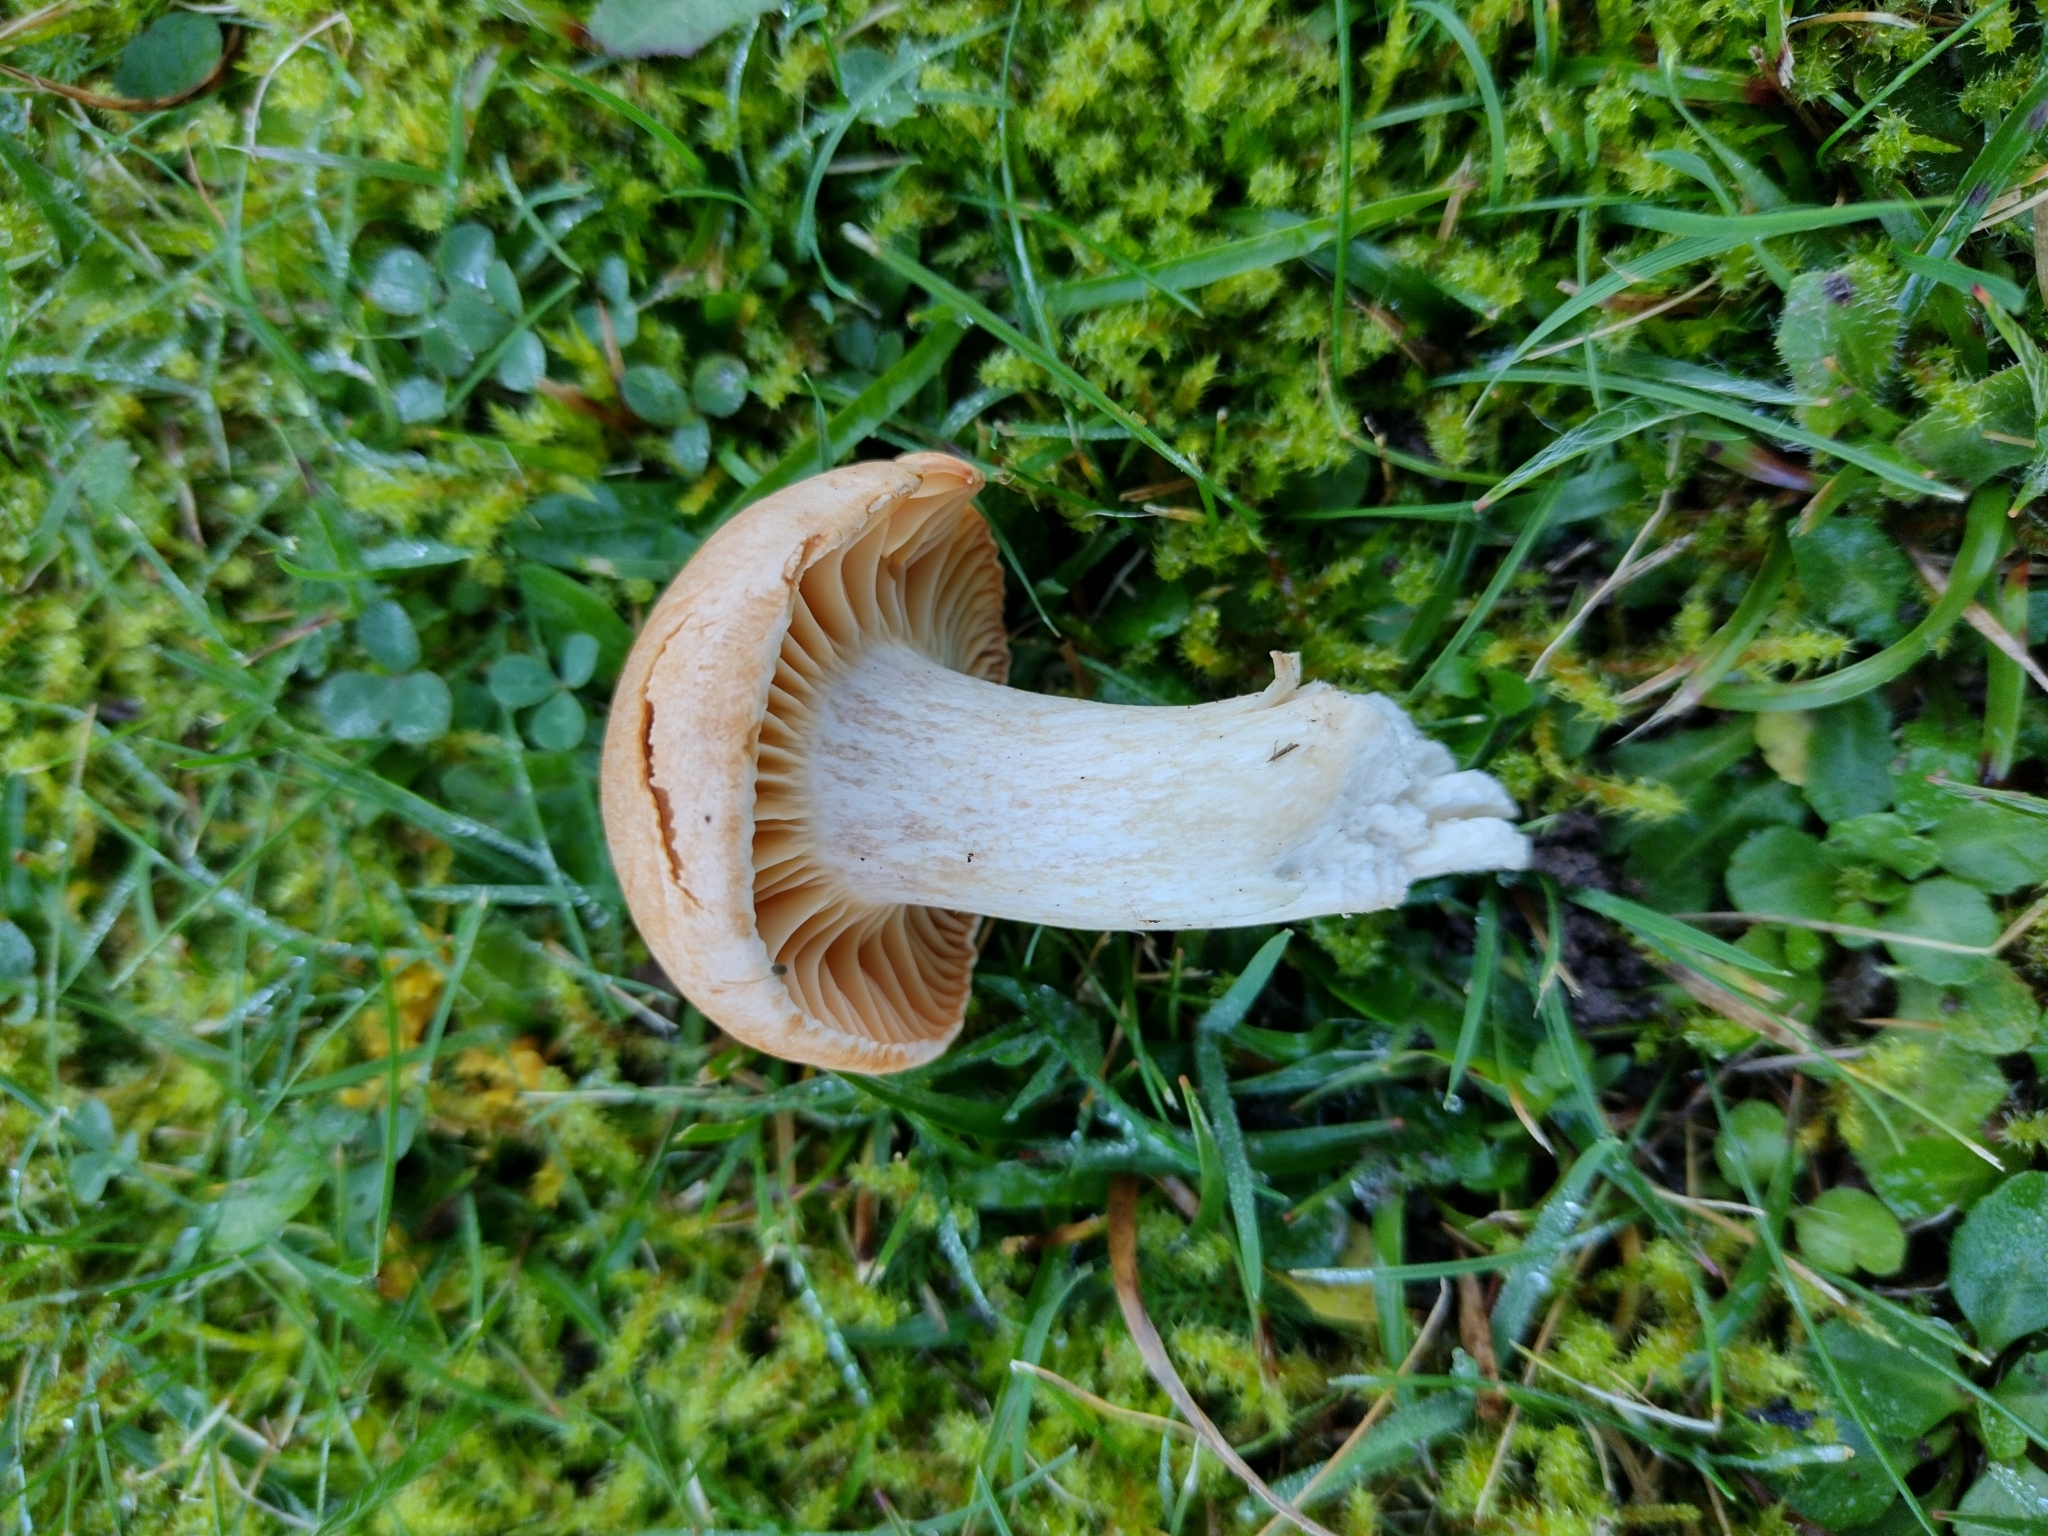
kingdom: Fungi
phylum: Basidiomycota
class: Agaricomycetes
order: Agaricales
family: Hygrophoraceae
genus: Cuphophyllus
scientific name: Cuphophyllus pratensis
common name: Meadow waxcap
